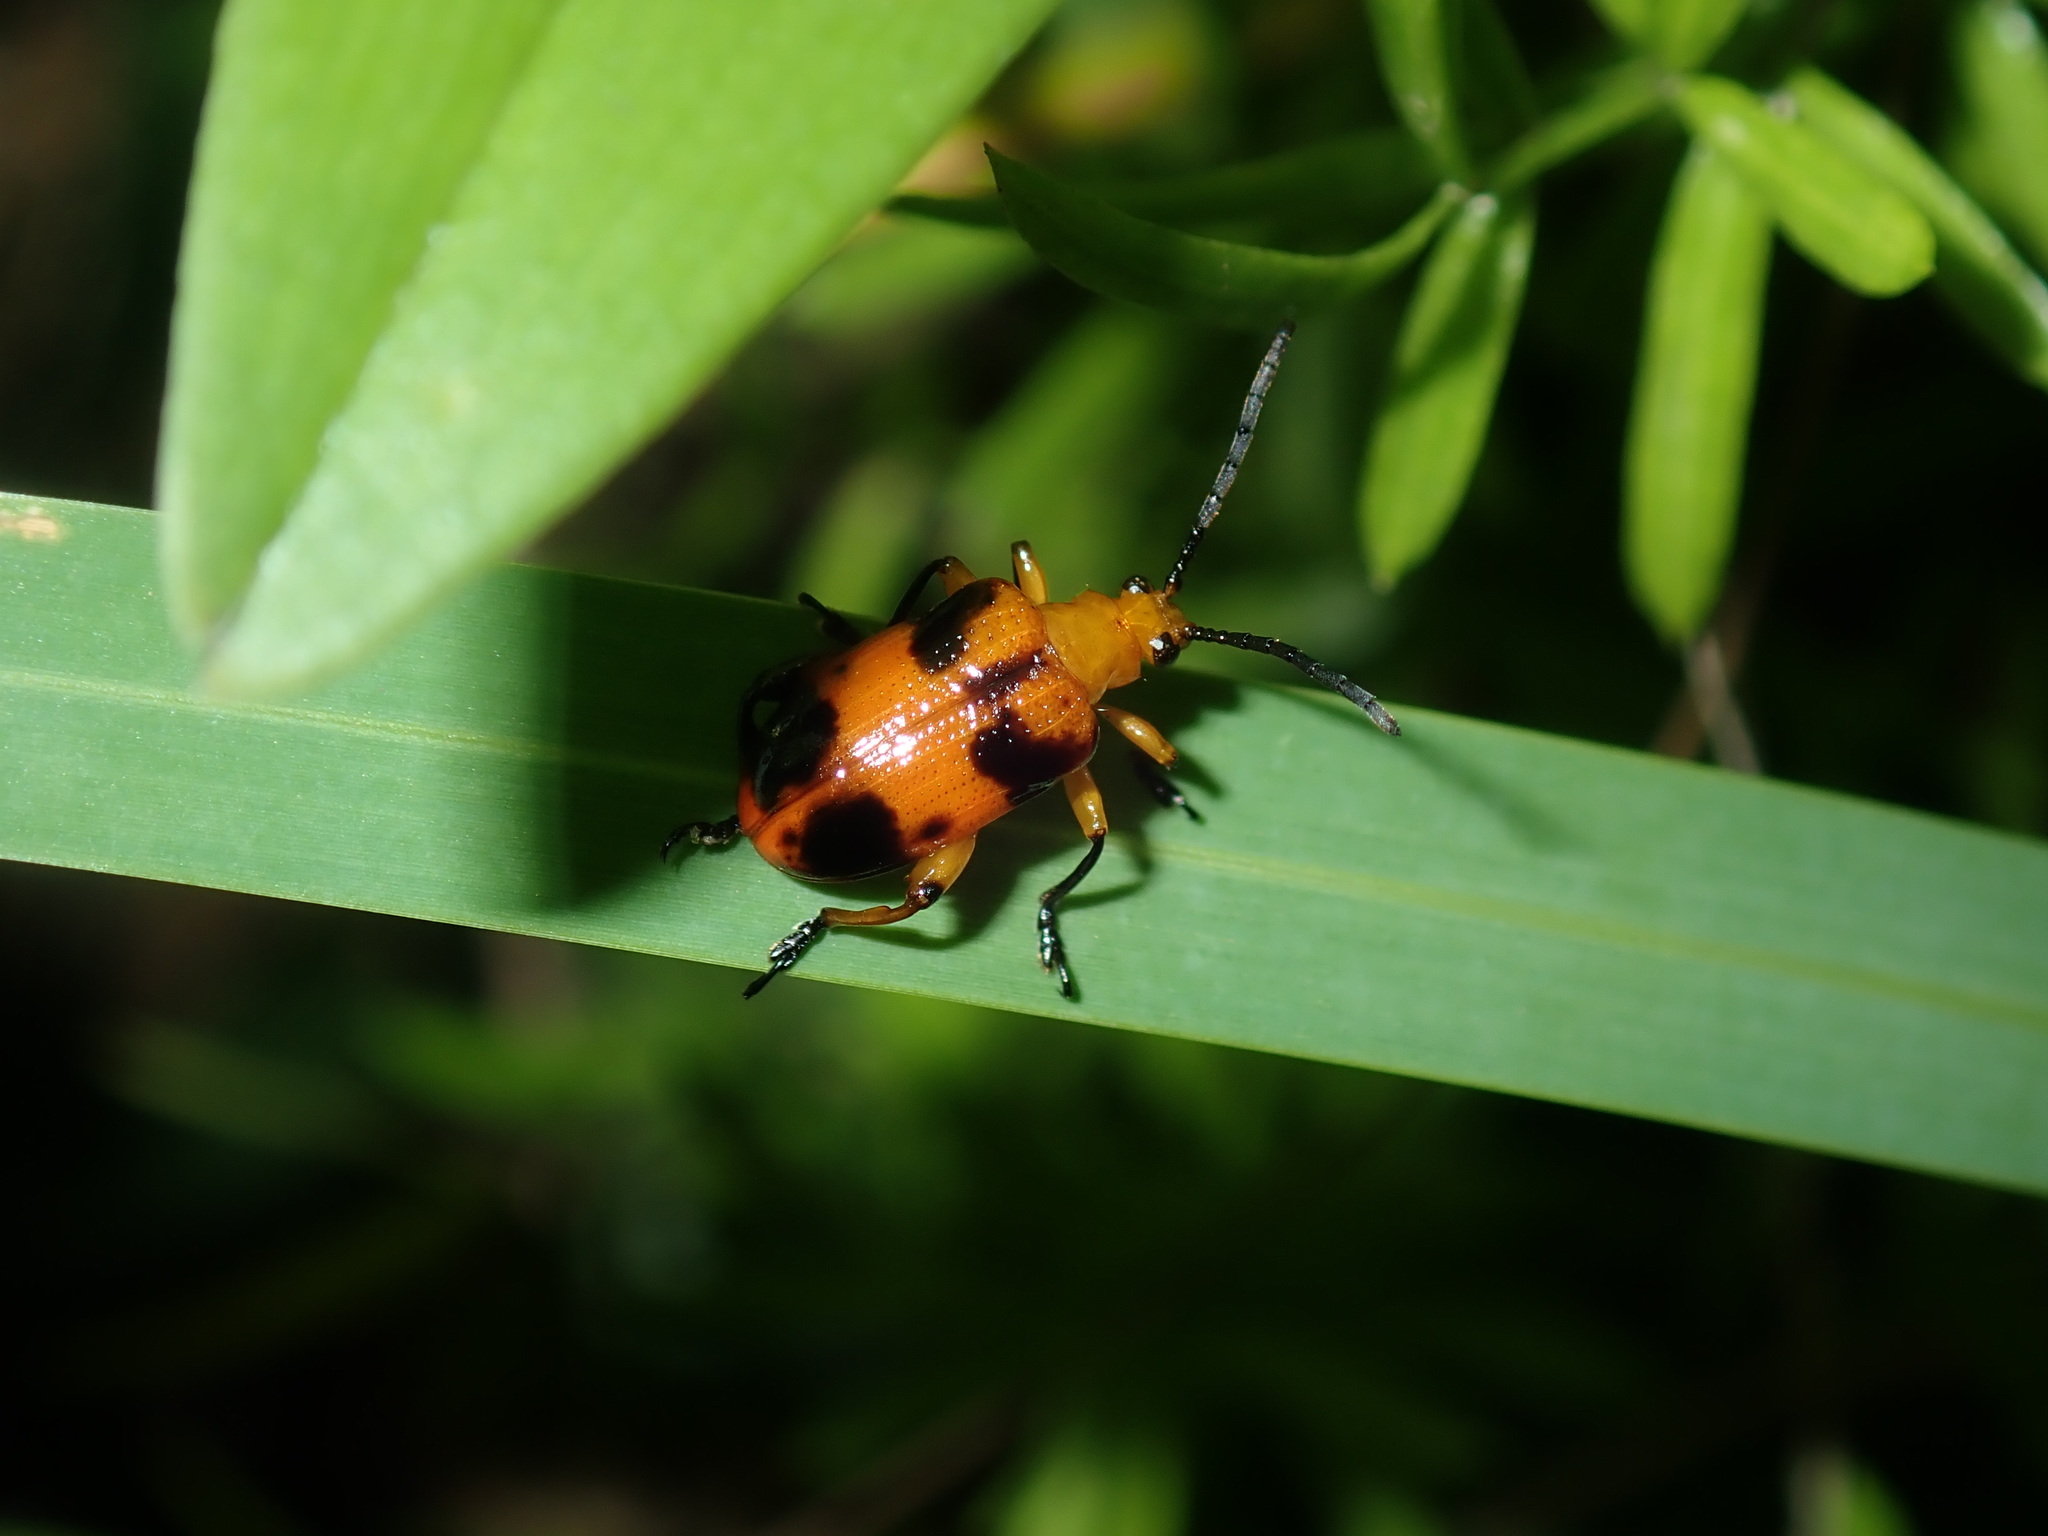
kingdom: Animalia
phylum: Arthropoda
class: Insecta
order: Coleoptera
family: Chrysomelidae
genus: Stethopachys
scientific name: Stethopachys formosa
